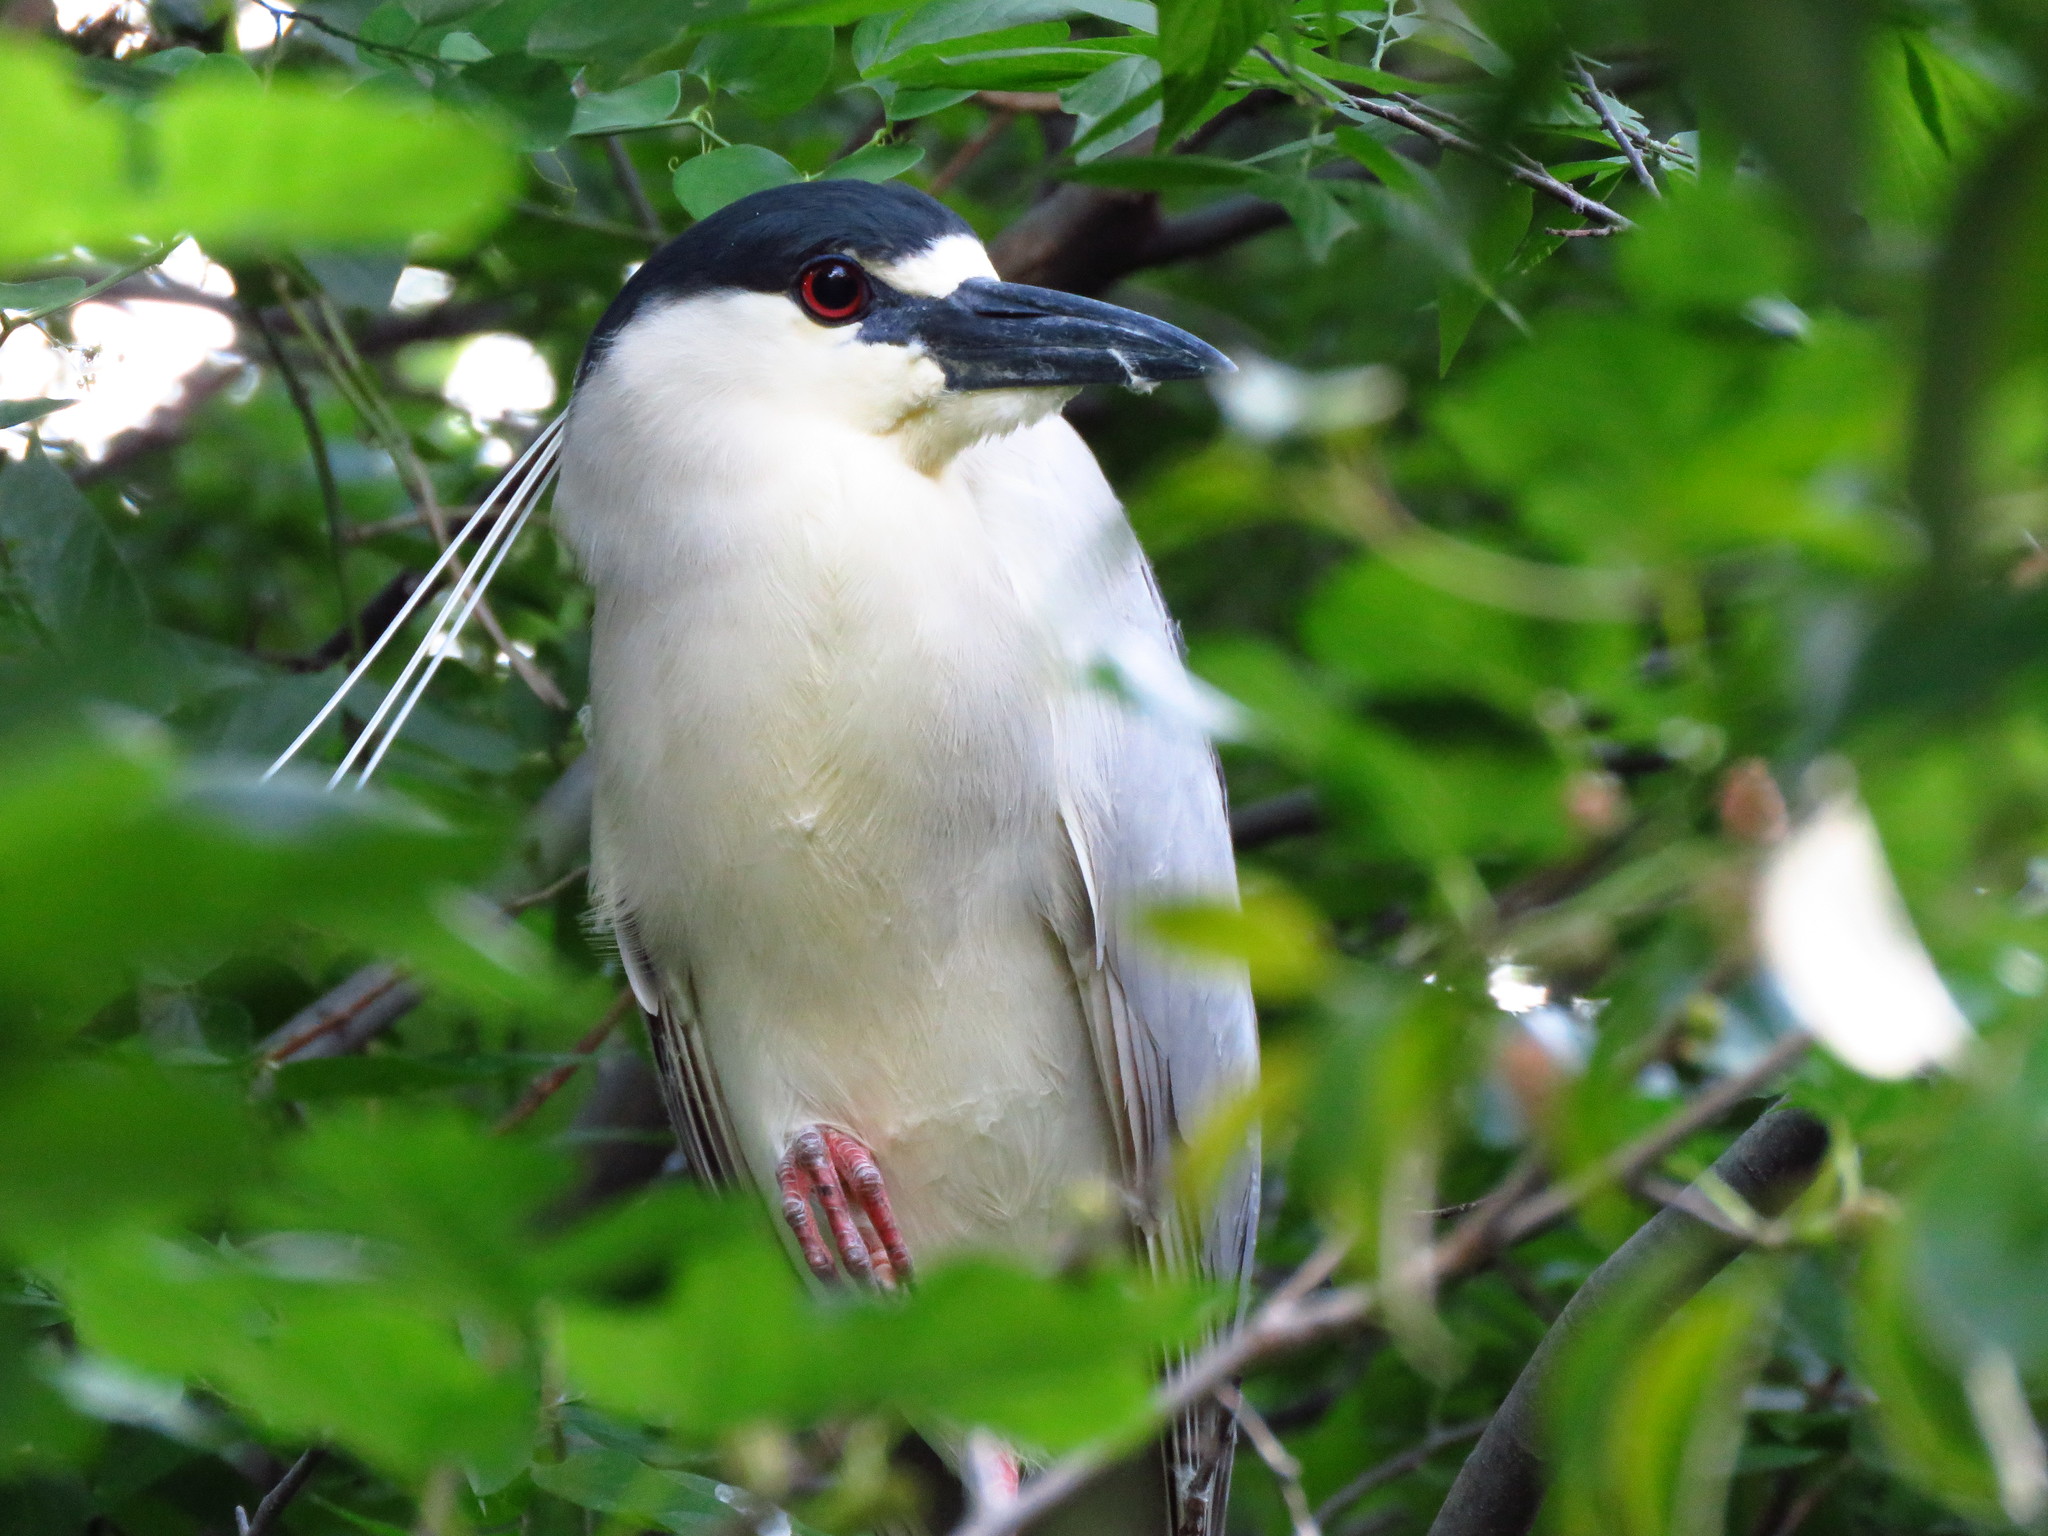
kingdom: Animalia
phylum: Chordata
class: Aves
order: Pelecaniformes
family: Ardeidae
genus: Nycticorax
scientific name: Nycticorax nycticorax
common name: Black-crowned night heron
